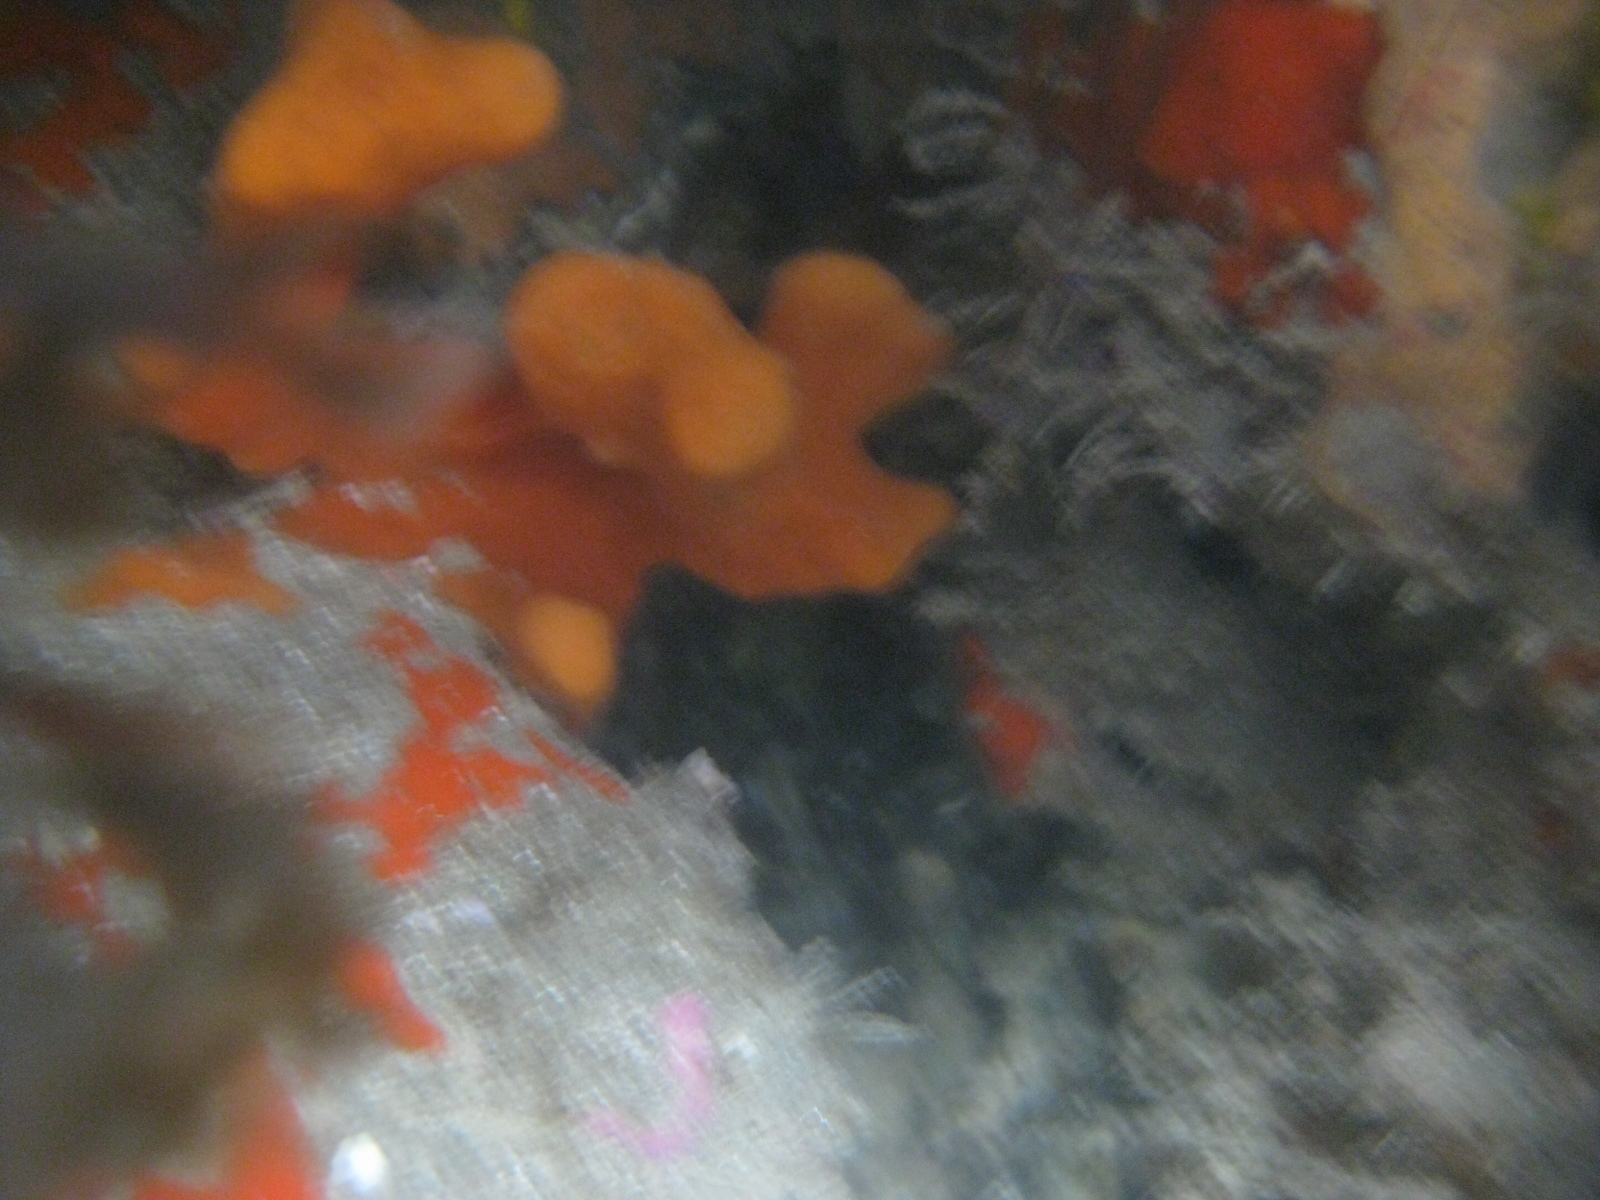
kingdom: Animalia
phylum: Porifera
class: Demospongiae
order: Poecilosclerida
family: Crellidae
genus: Crella
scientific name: Crella incrustans
